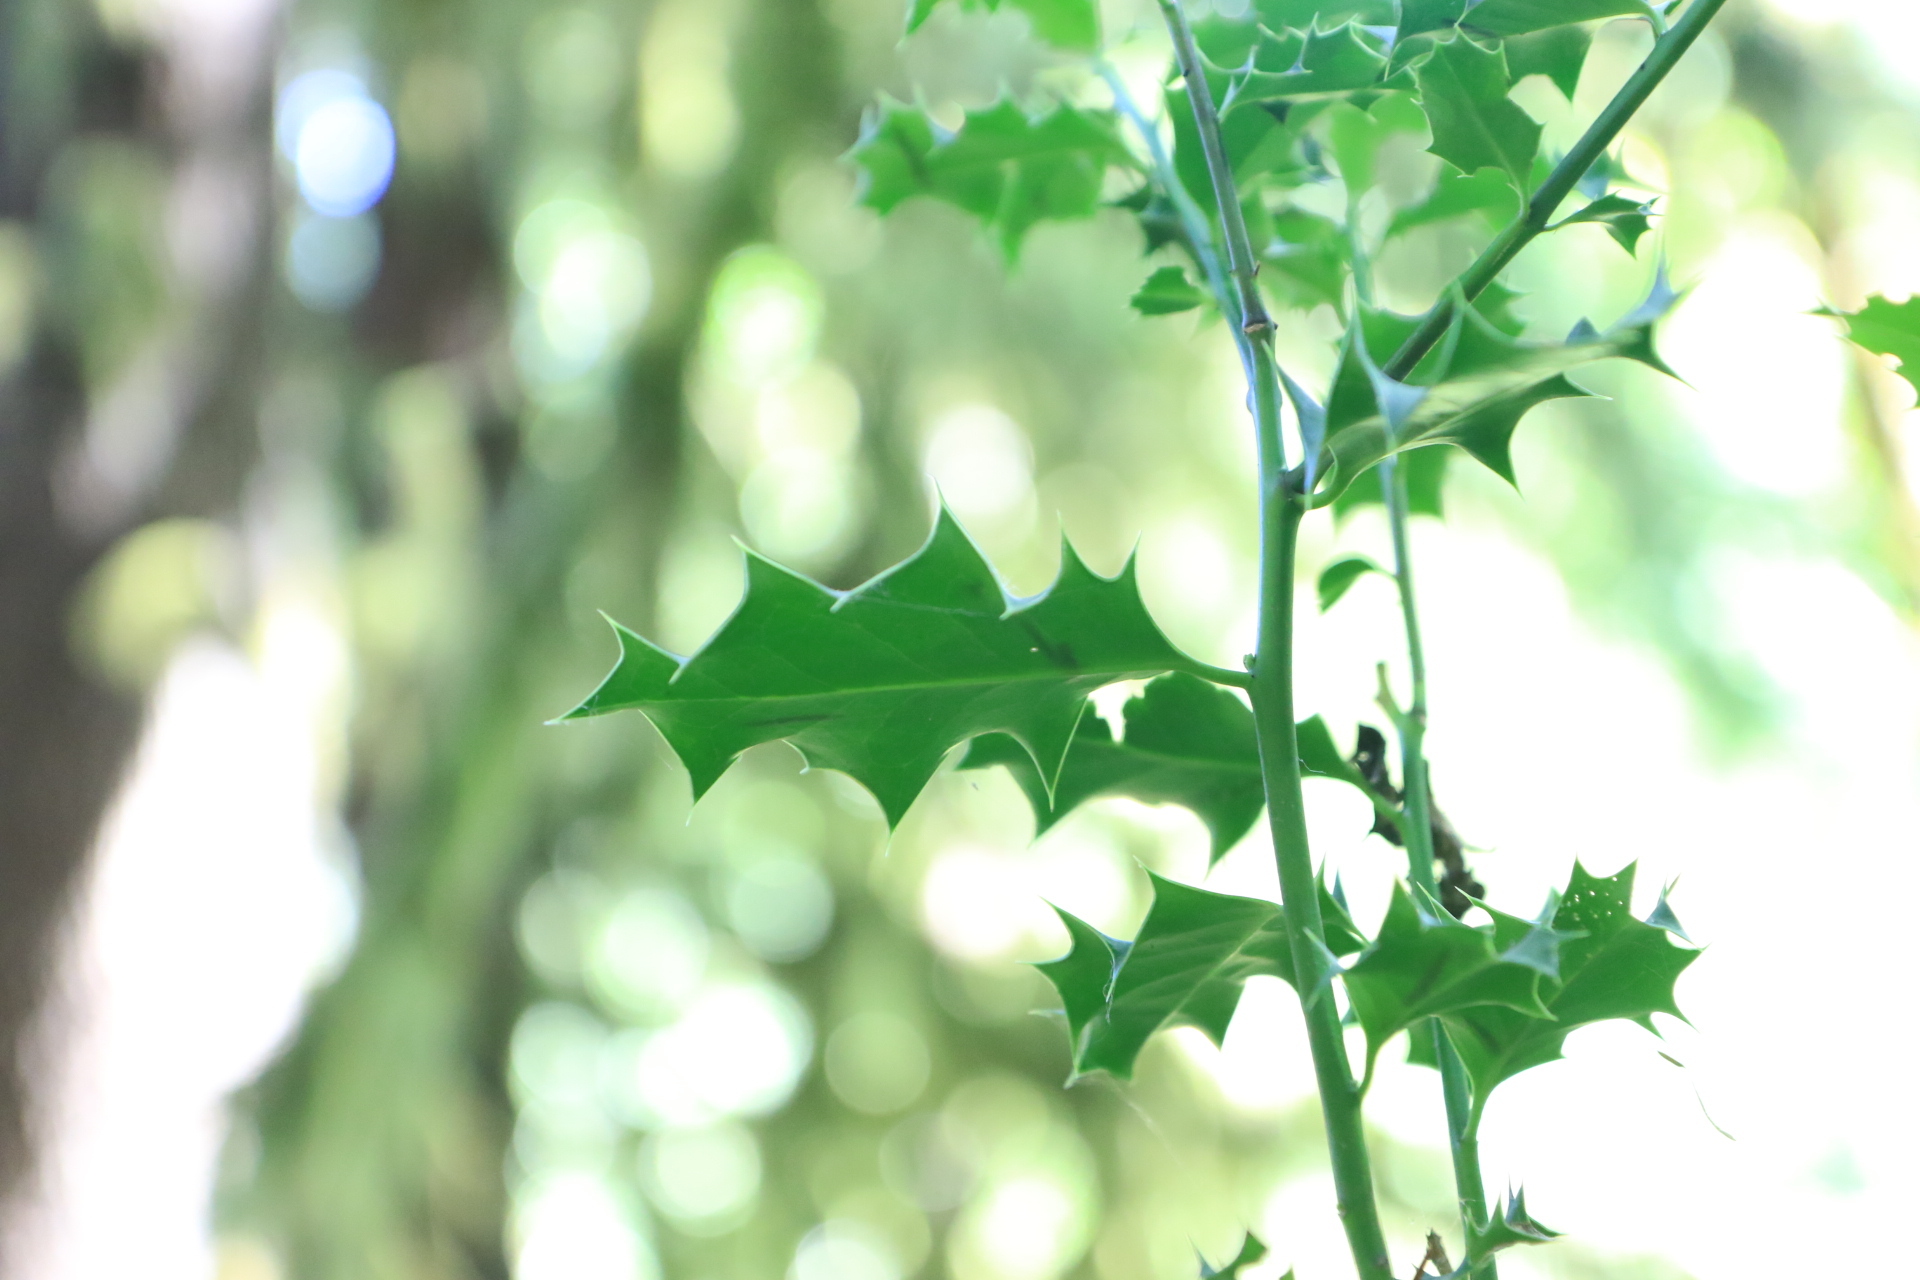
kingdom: Plantae
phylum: Tracheophyta
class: Magnoliopsida
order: Aquifoliales
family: Aquifoliaceae
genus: Ilex
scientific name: Ilex aquifolium
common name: English holly
